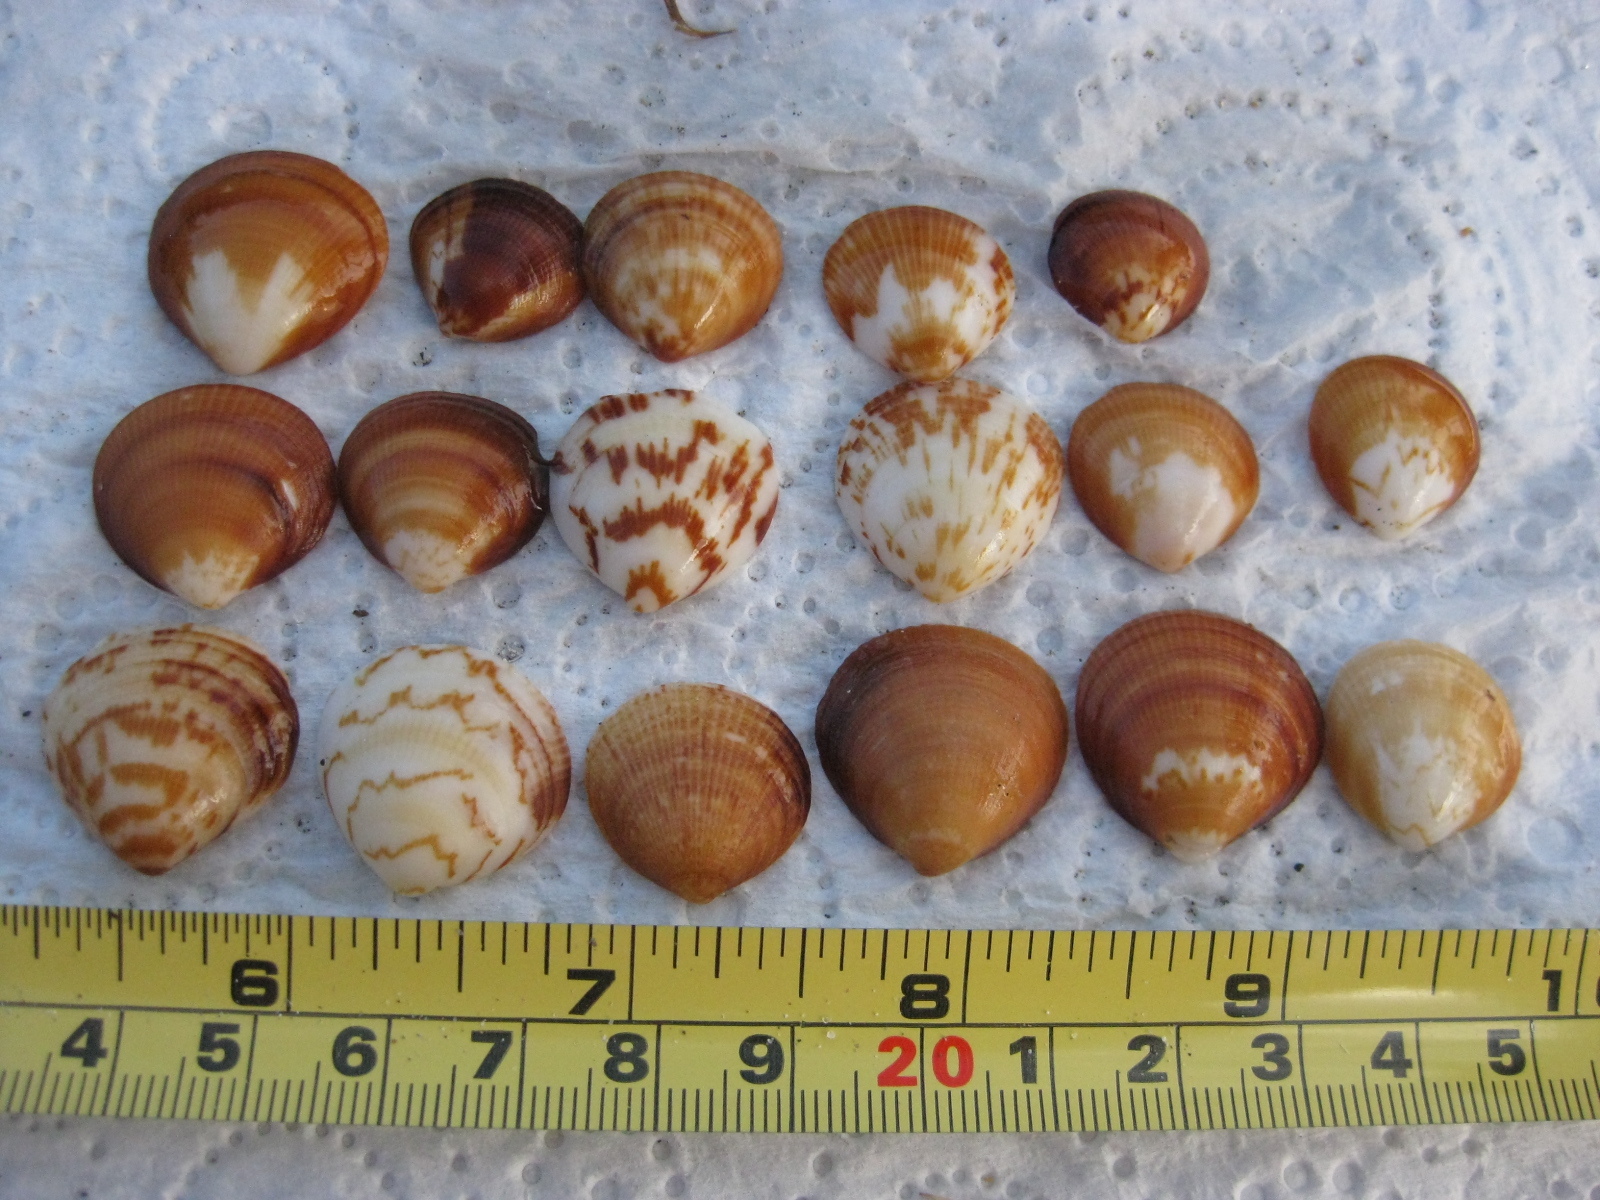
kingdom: Animalia
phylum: Mollusca
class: Bivalvia
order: Arcida
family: Glycymerididae
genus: Glycymeris
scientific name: Glycymeris modesta
